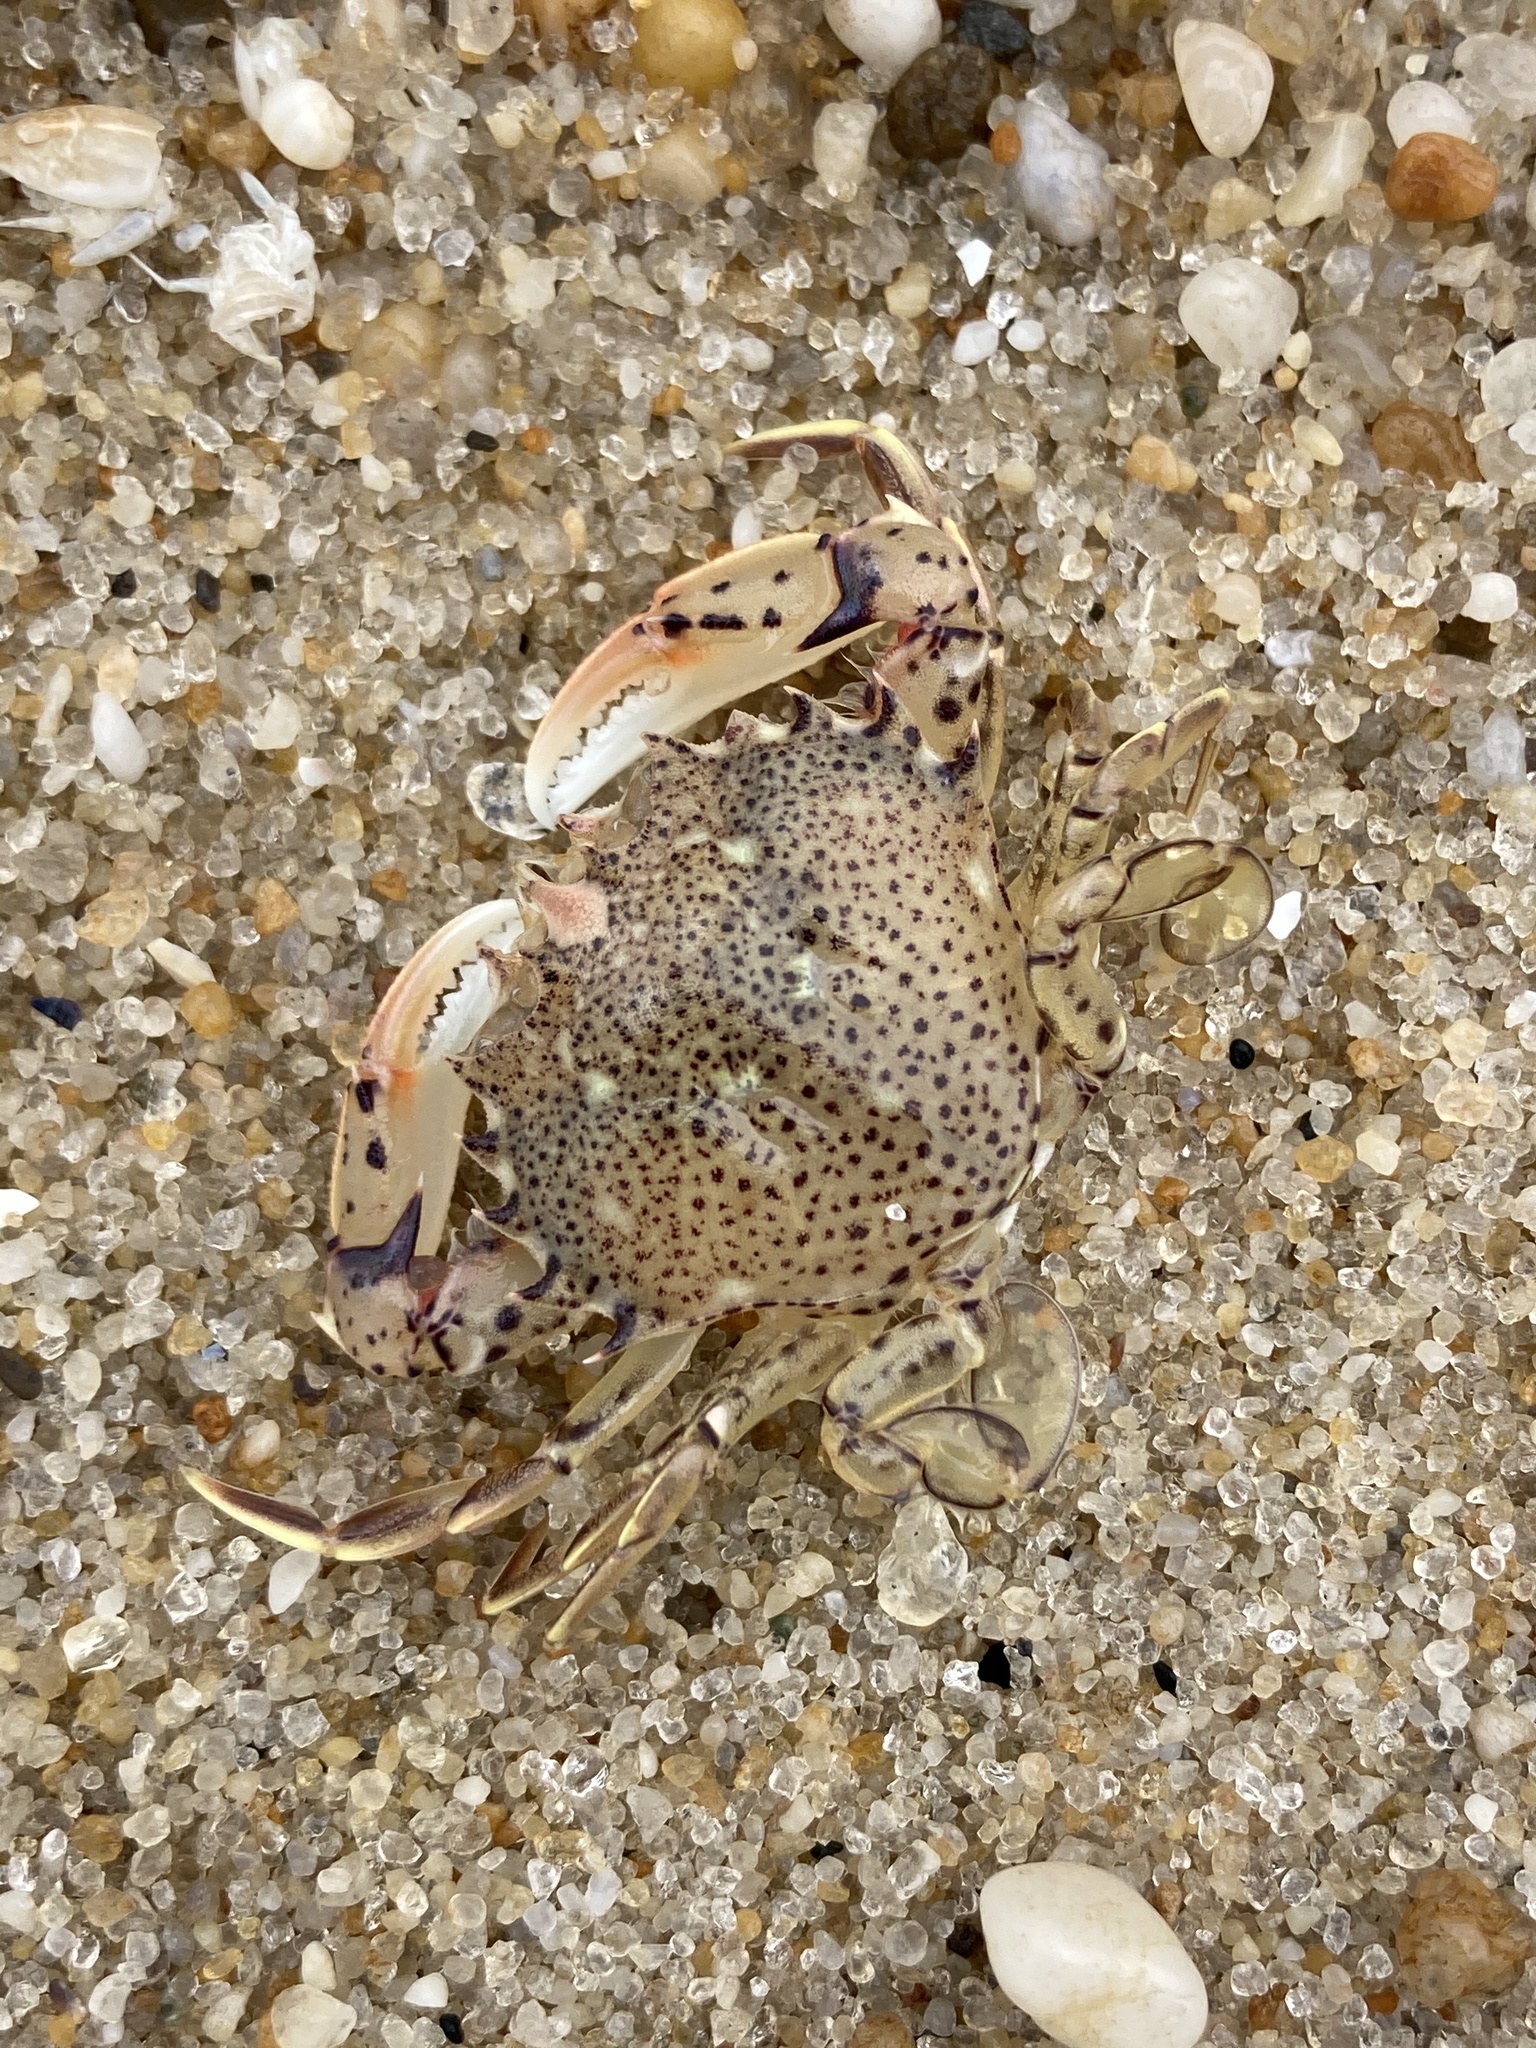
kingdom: Animalia
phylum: Arthropoda
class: Malacostraca
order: Decapoda
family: Ovalipidae
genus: Ovalipes
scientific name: Ovalipes ocellatus
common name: Lady crab
